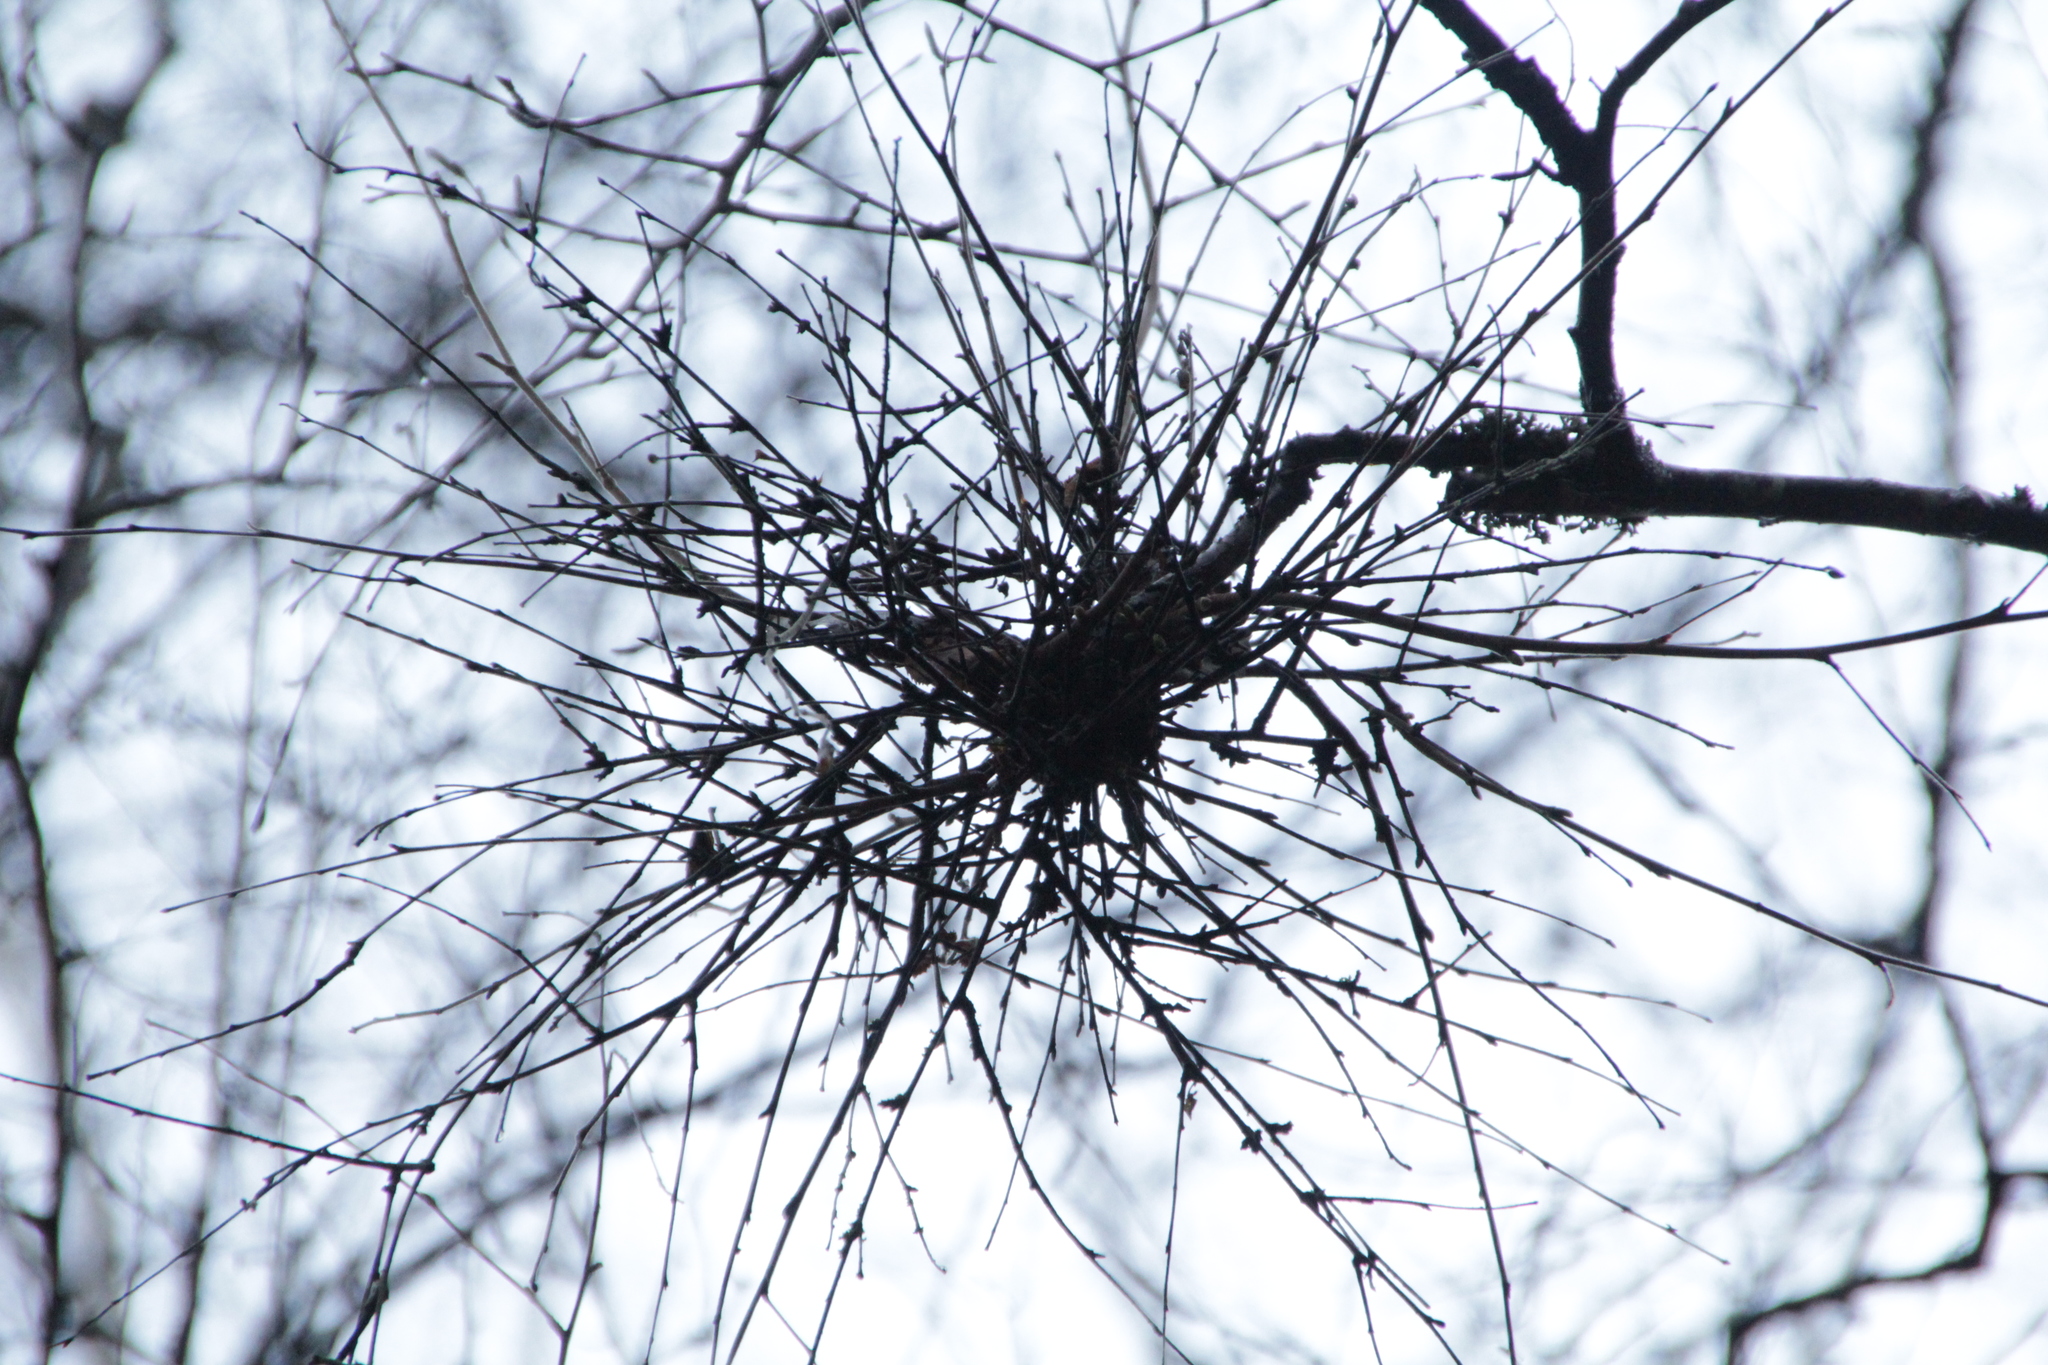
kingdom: Fungi
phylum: Ascomycota
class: Taphrinomycetes
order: Taphrinales
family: Taphrinaceae
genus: Taphrina
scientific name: Taphrina betulina
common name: Birch besom
